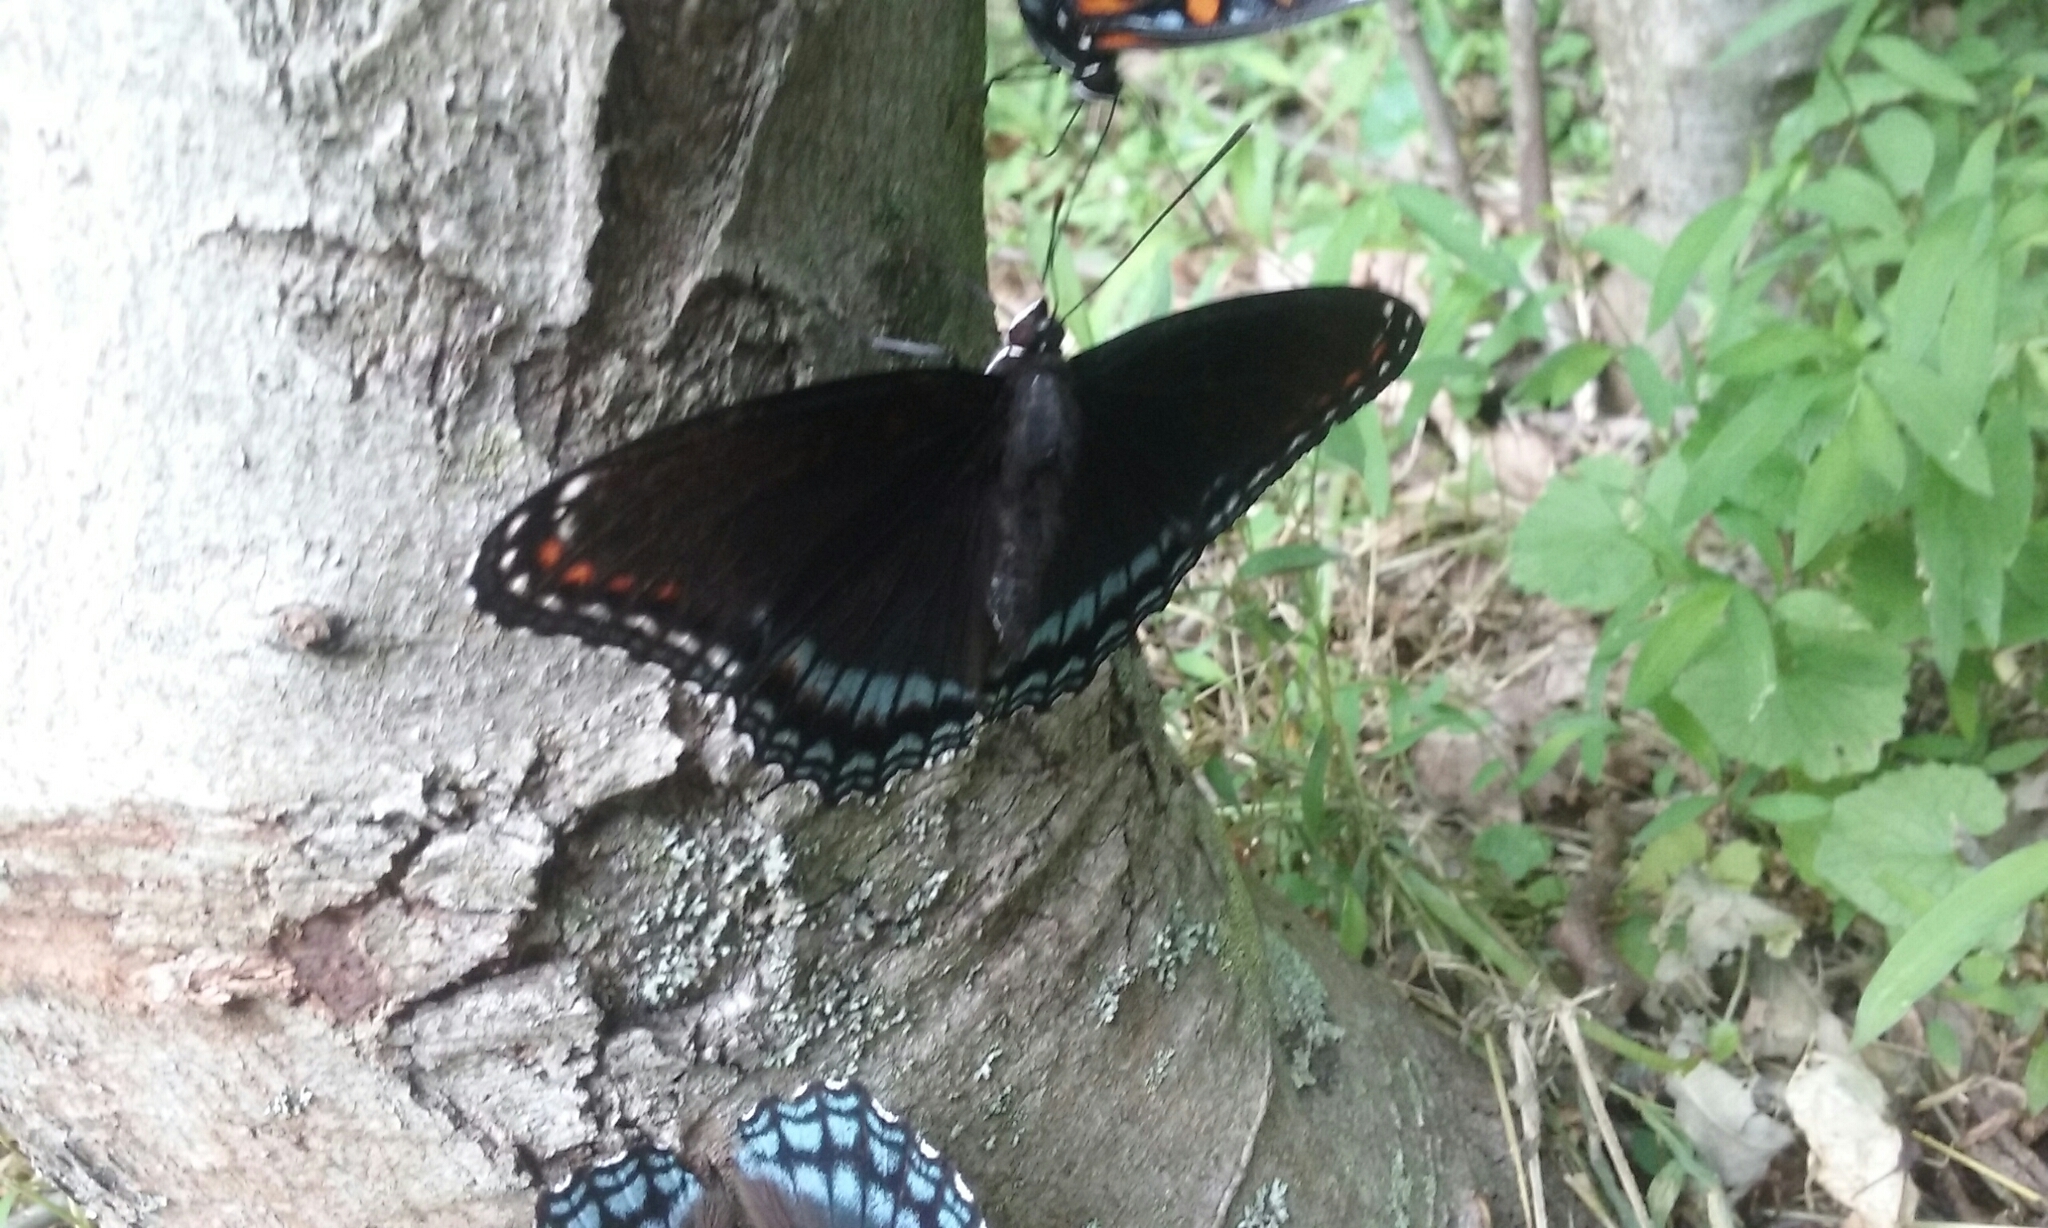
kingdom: Animalia
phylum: Arthropoda
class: Insecta
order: Lepidoptera
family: Nymphalidae
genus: Limenitis
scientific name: Limenitis
